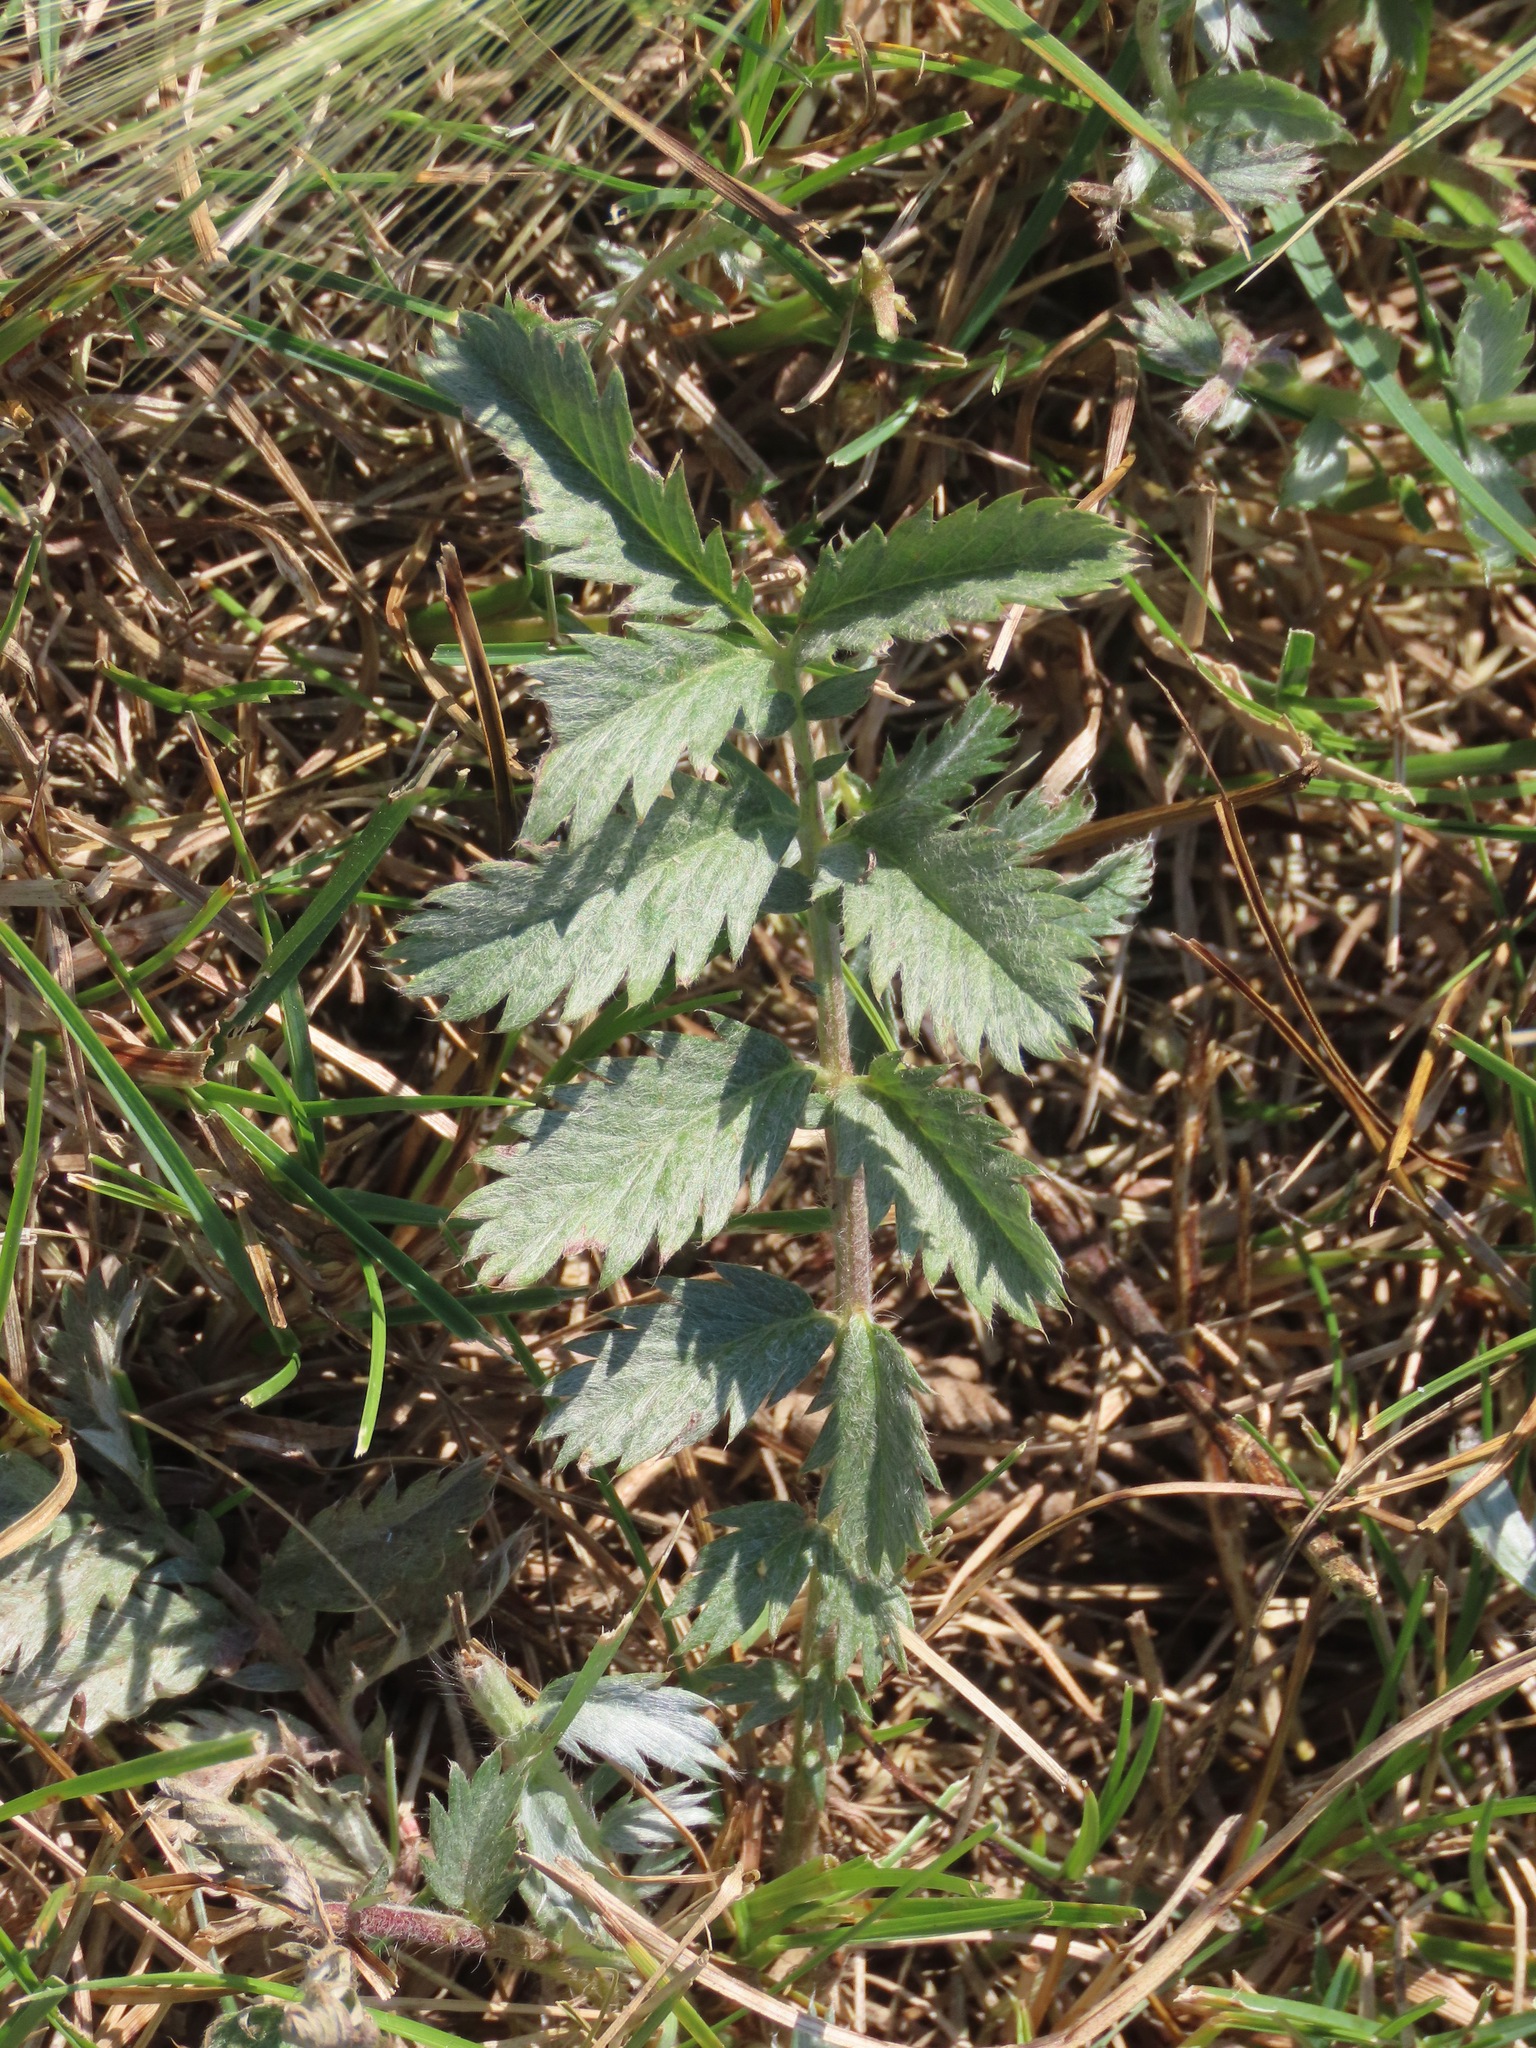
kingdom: Plantae
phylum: Tracheophyta
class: Magnoliopsida
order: Rosales
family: Rosaceae
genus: Argentina
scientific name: Argentina anserina
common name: Common silverweed
